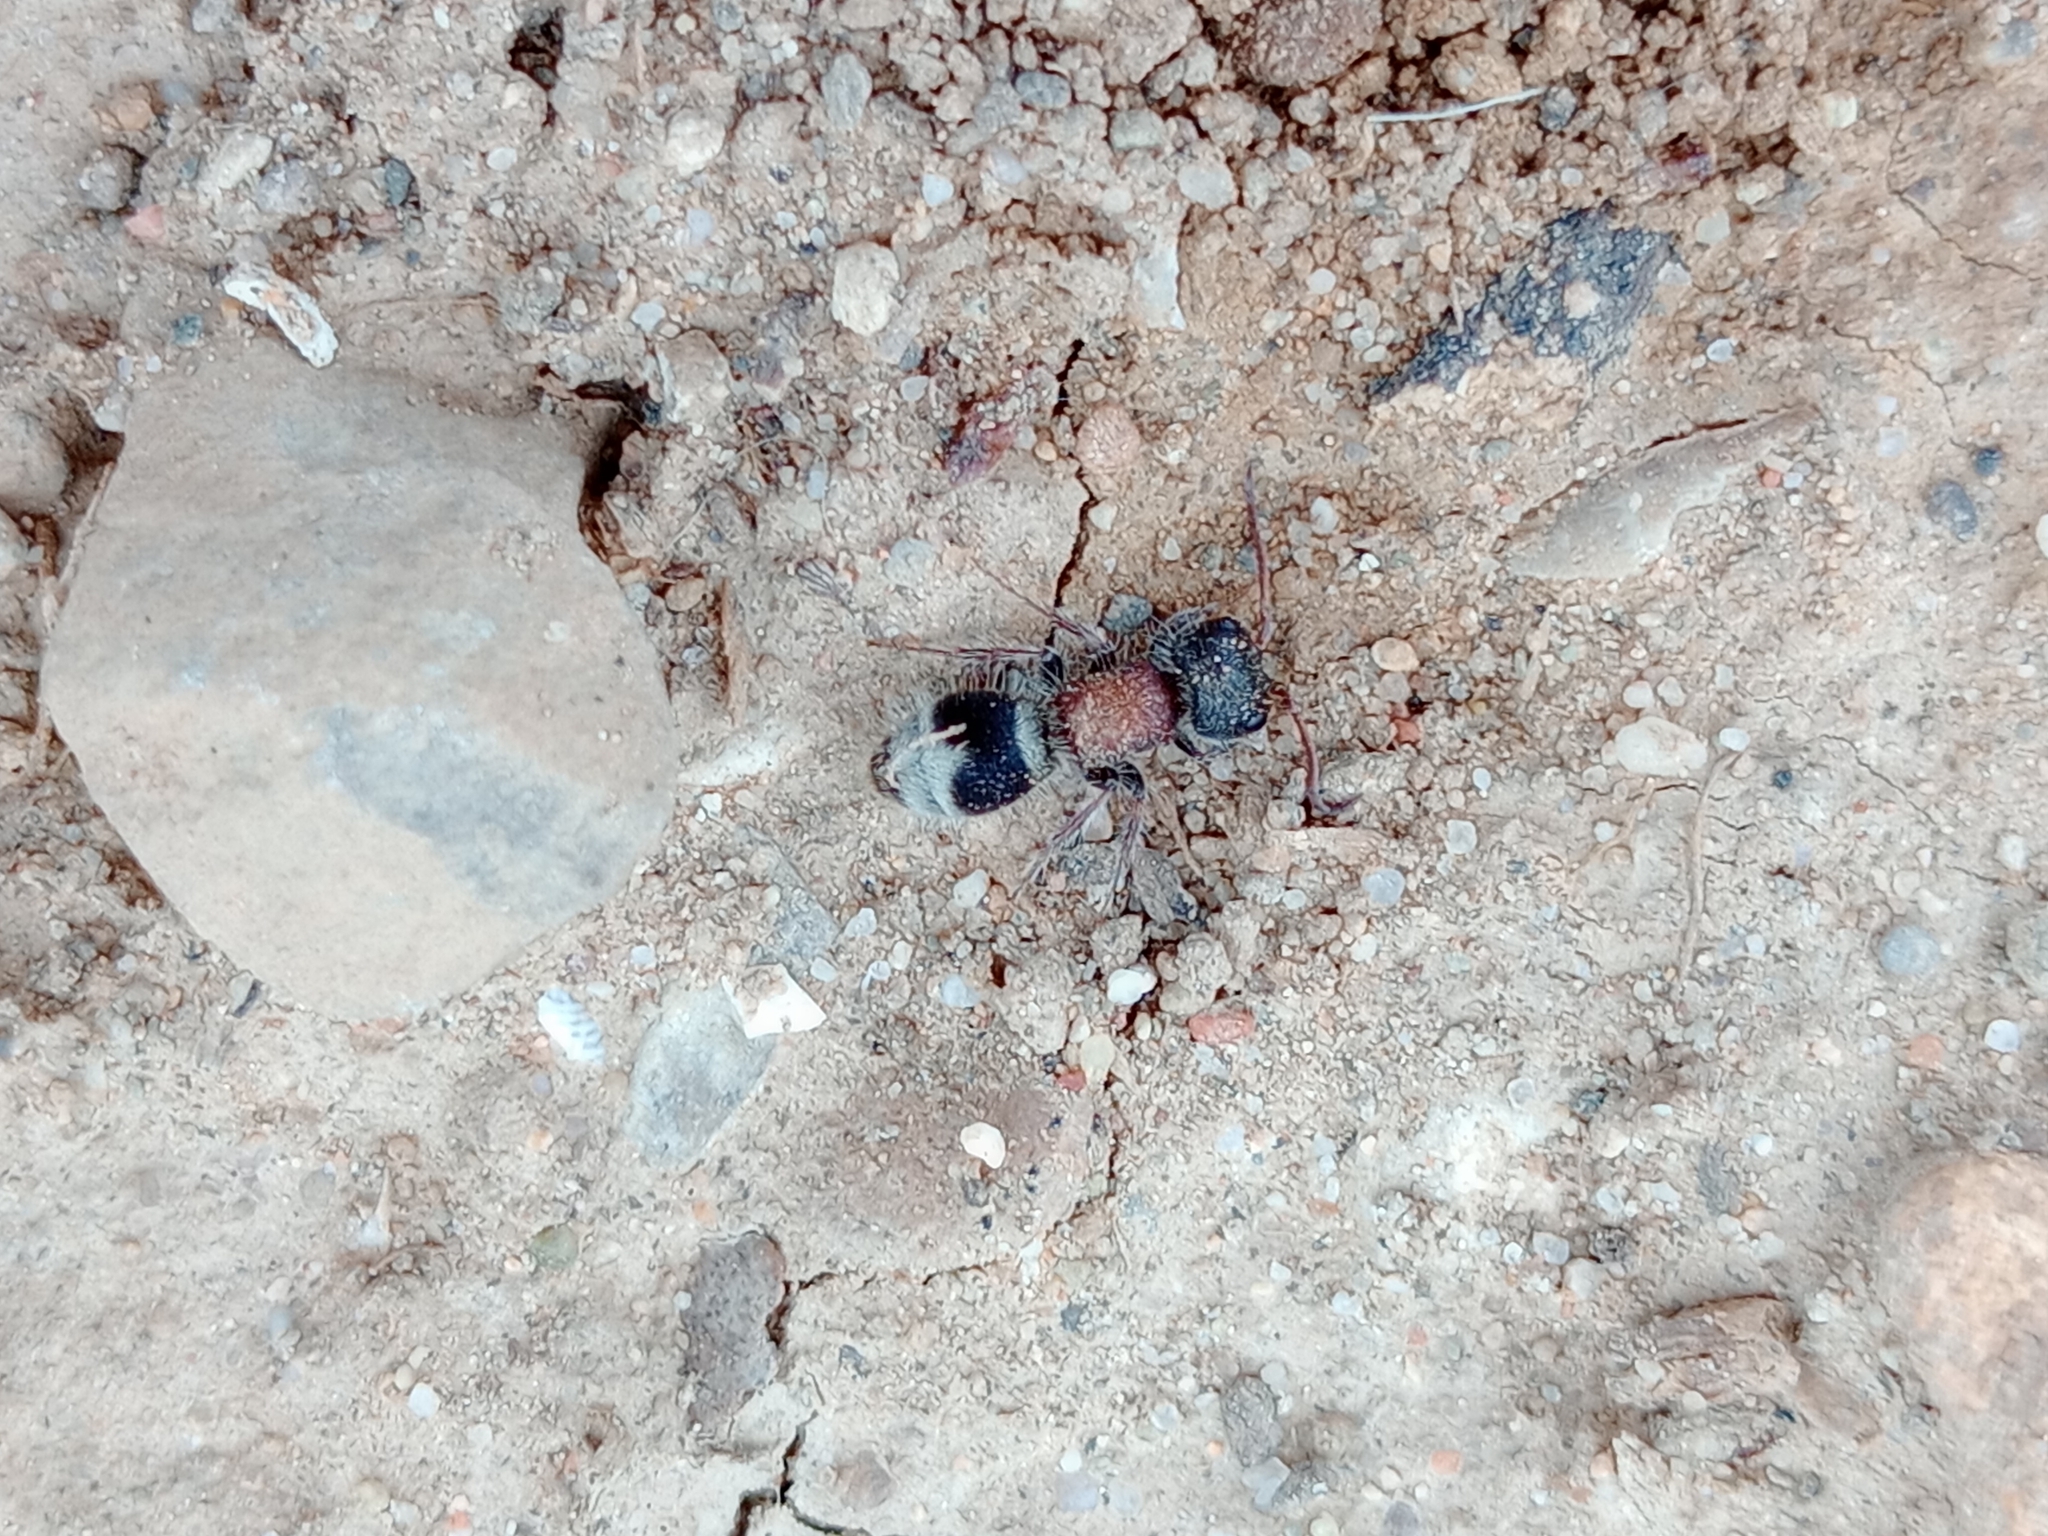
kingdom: Animalia
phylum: Arthropoda
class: Insecta
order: Hymenoptera
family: Mutillidae
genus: Myrmilla
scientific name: Myrmilla calva
